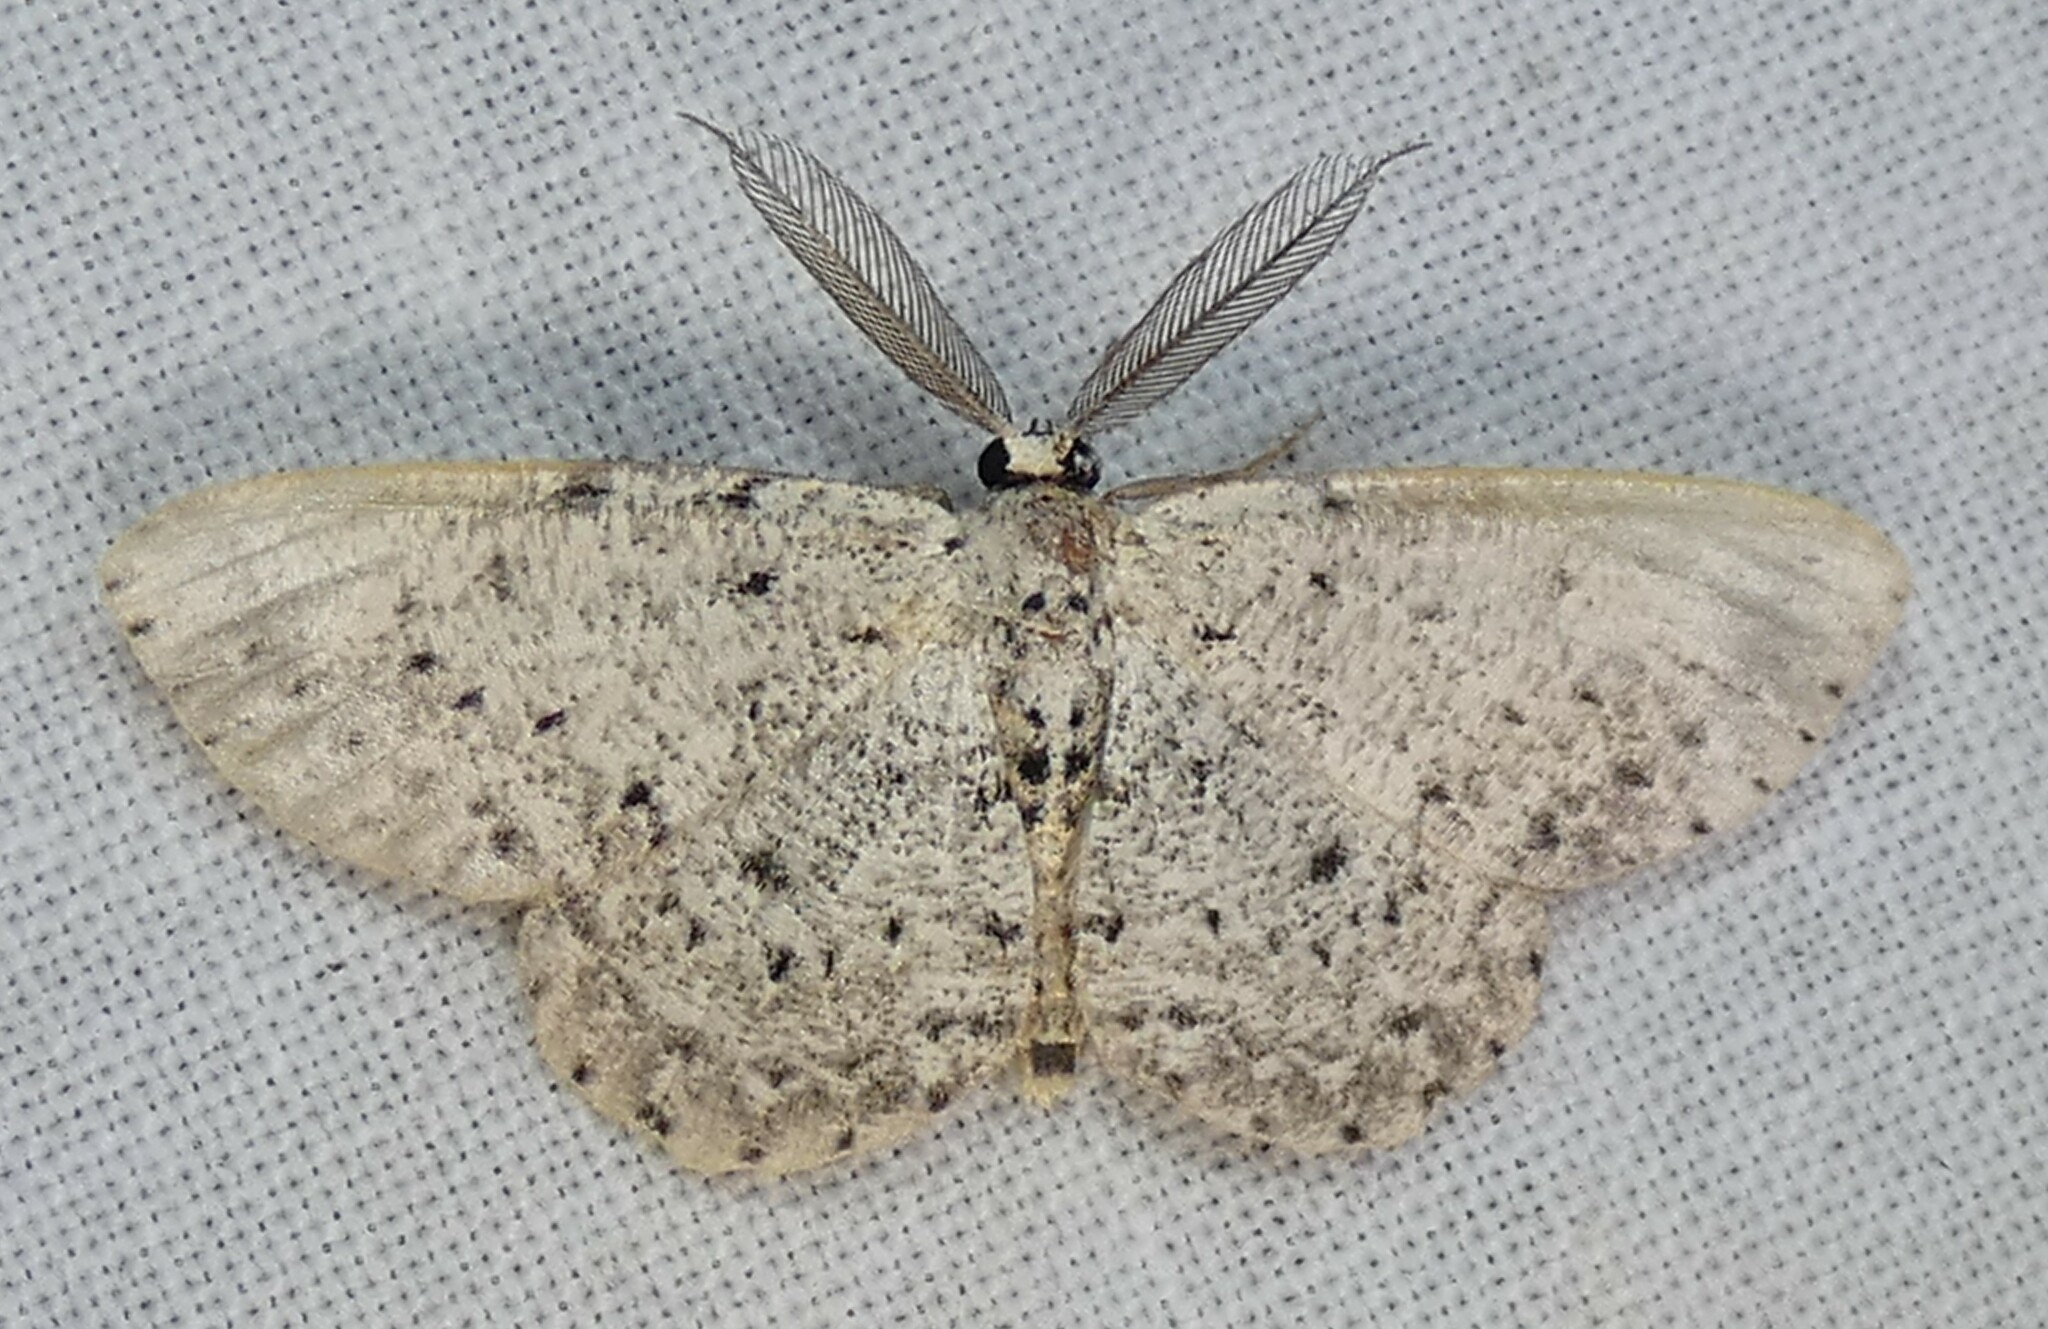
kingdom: Animalia
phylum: Arthropoda
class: Insecta
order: Lepidoptera
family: Geometridae
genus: Glena
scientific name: Glena cribrataria
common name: Dotted gray
